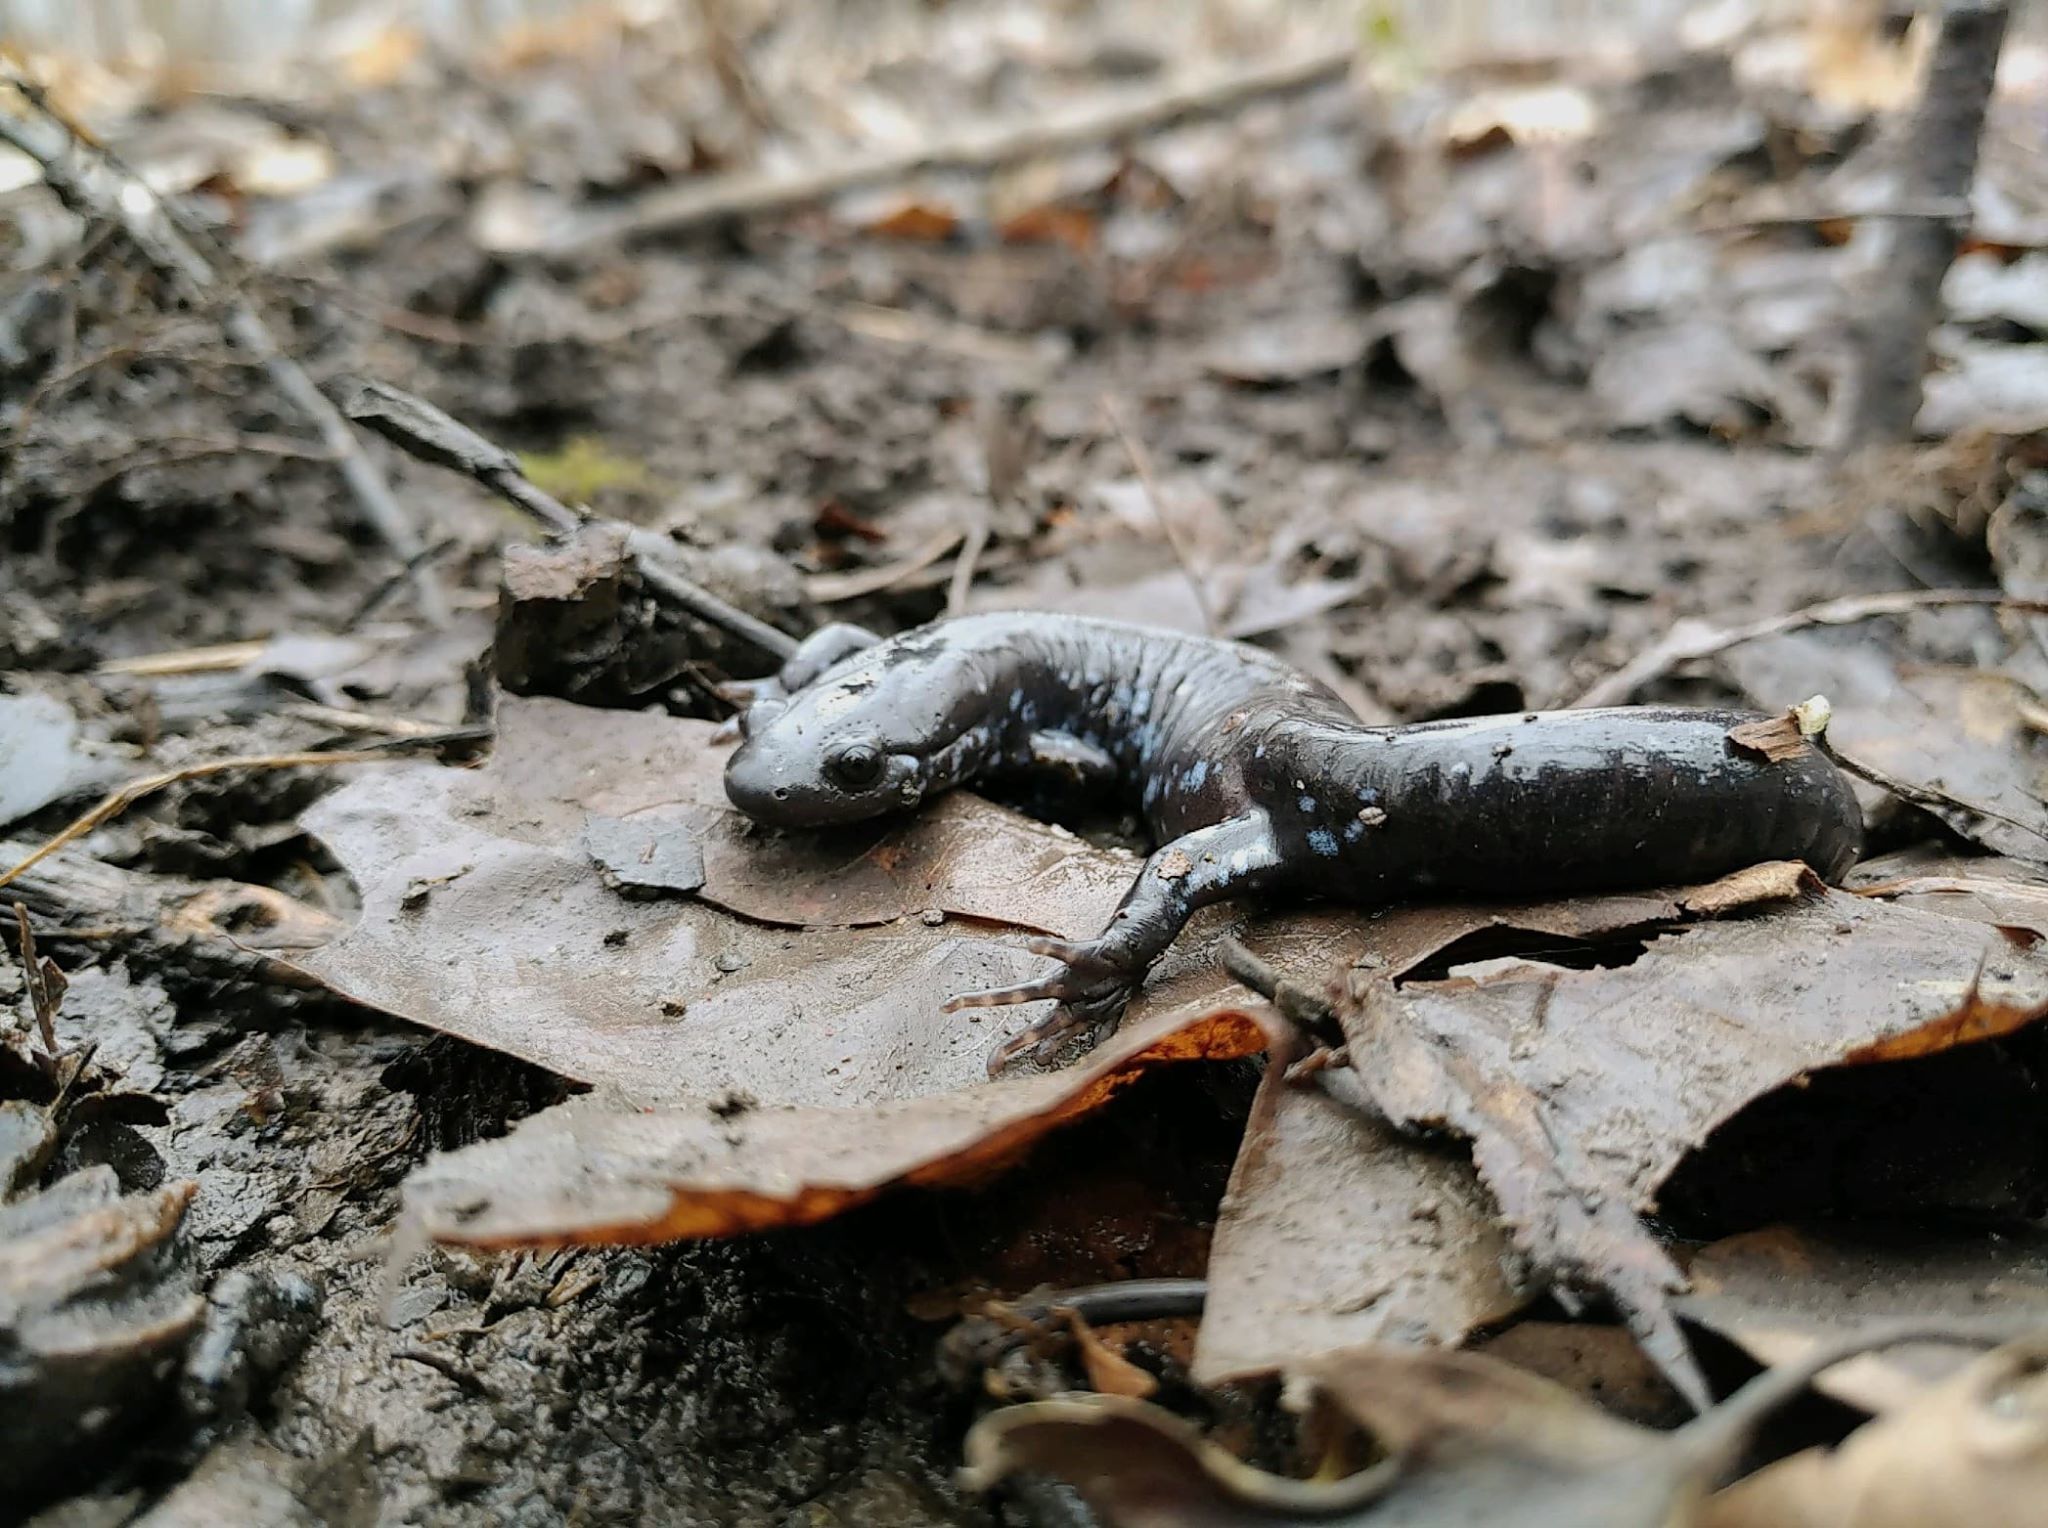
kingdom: Animalia
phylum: Chordata
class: Amphibia
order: Caudata
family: Ambystomatidae
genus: Ambystoma
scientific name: Ambystoma laterale
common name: Blue-spotted salamander
